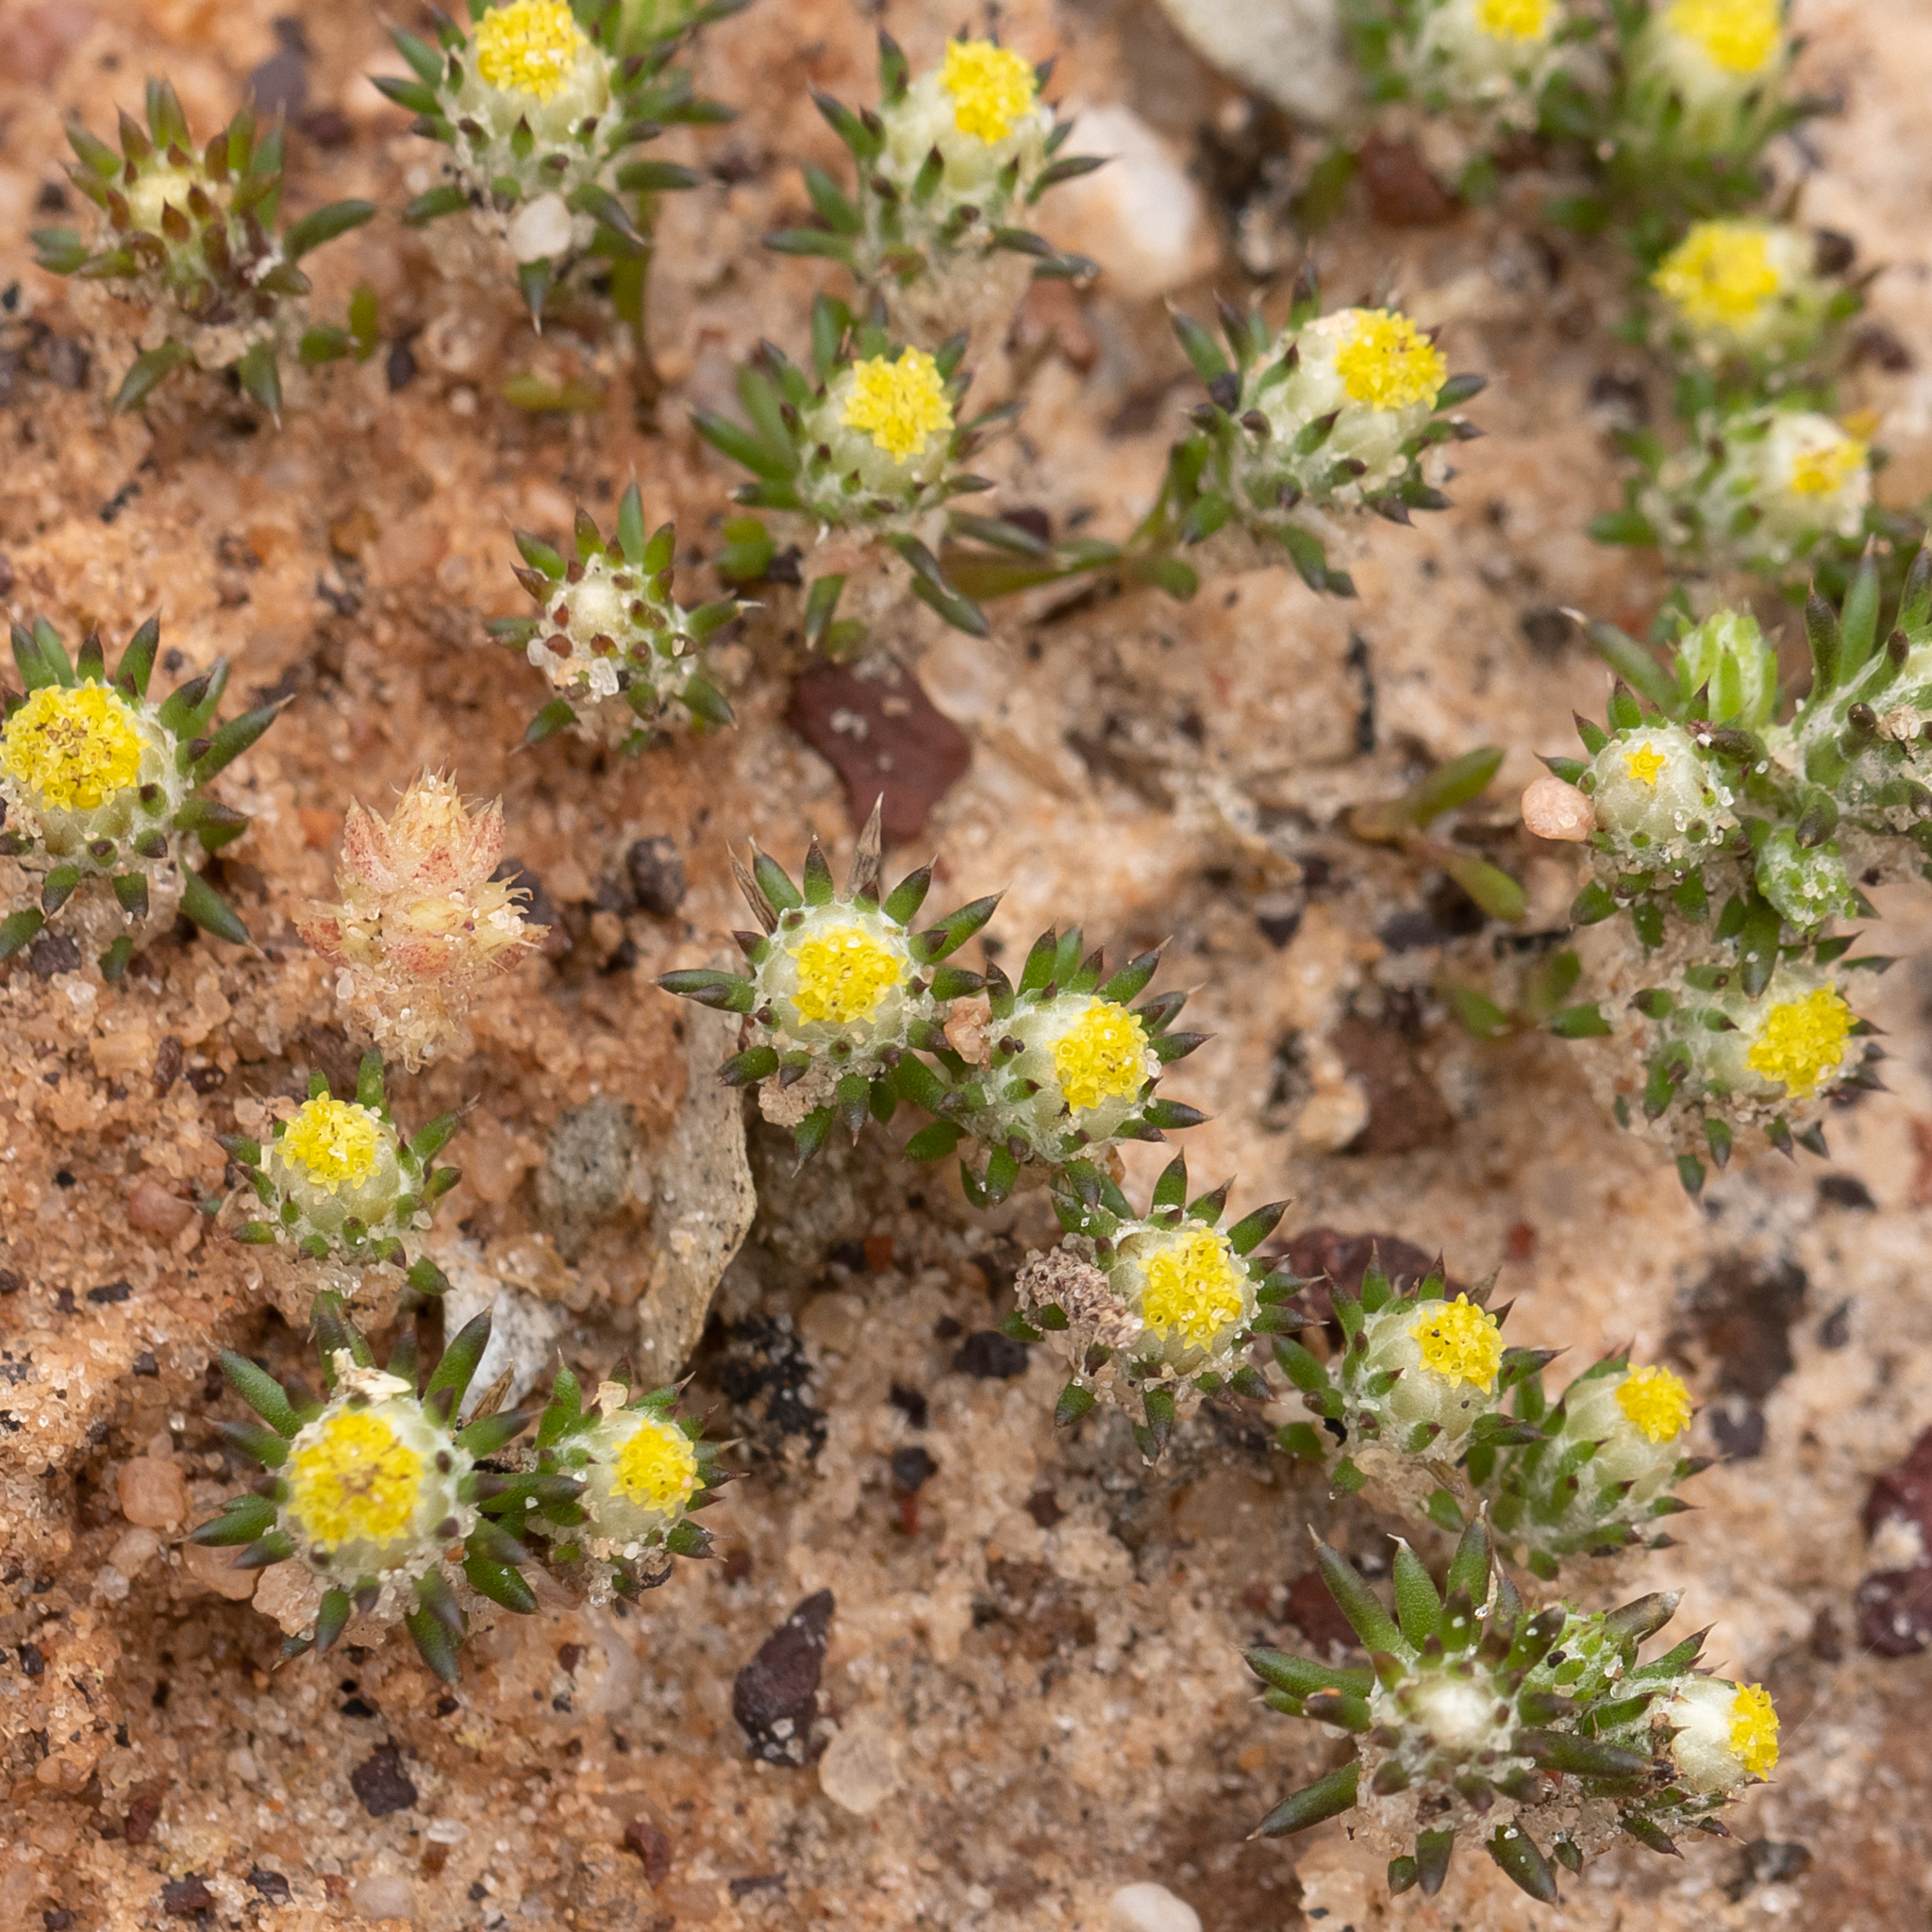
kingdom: Plantae
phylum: Tracheophyta
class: Magnoliopsida
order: Asterales
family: Asteraceae
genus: Pogonolepis
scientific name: Pogonolepis muelleriana
